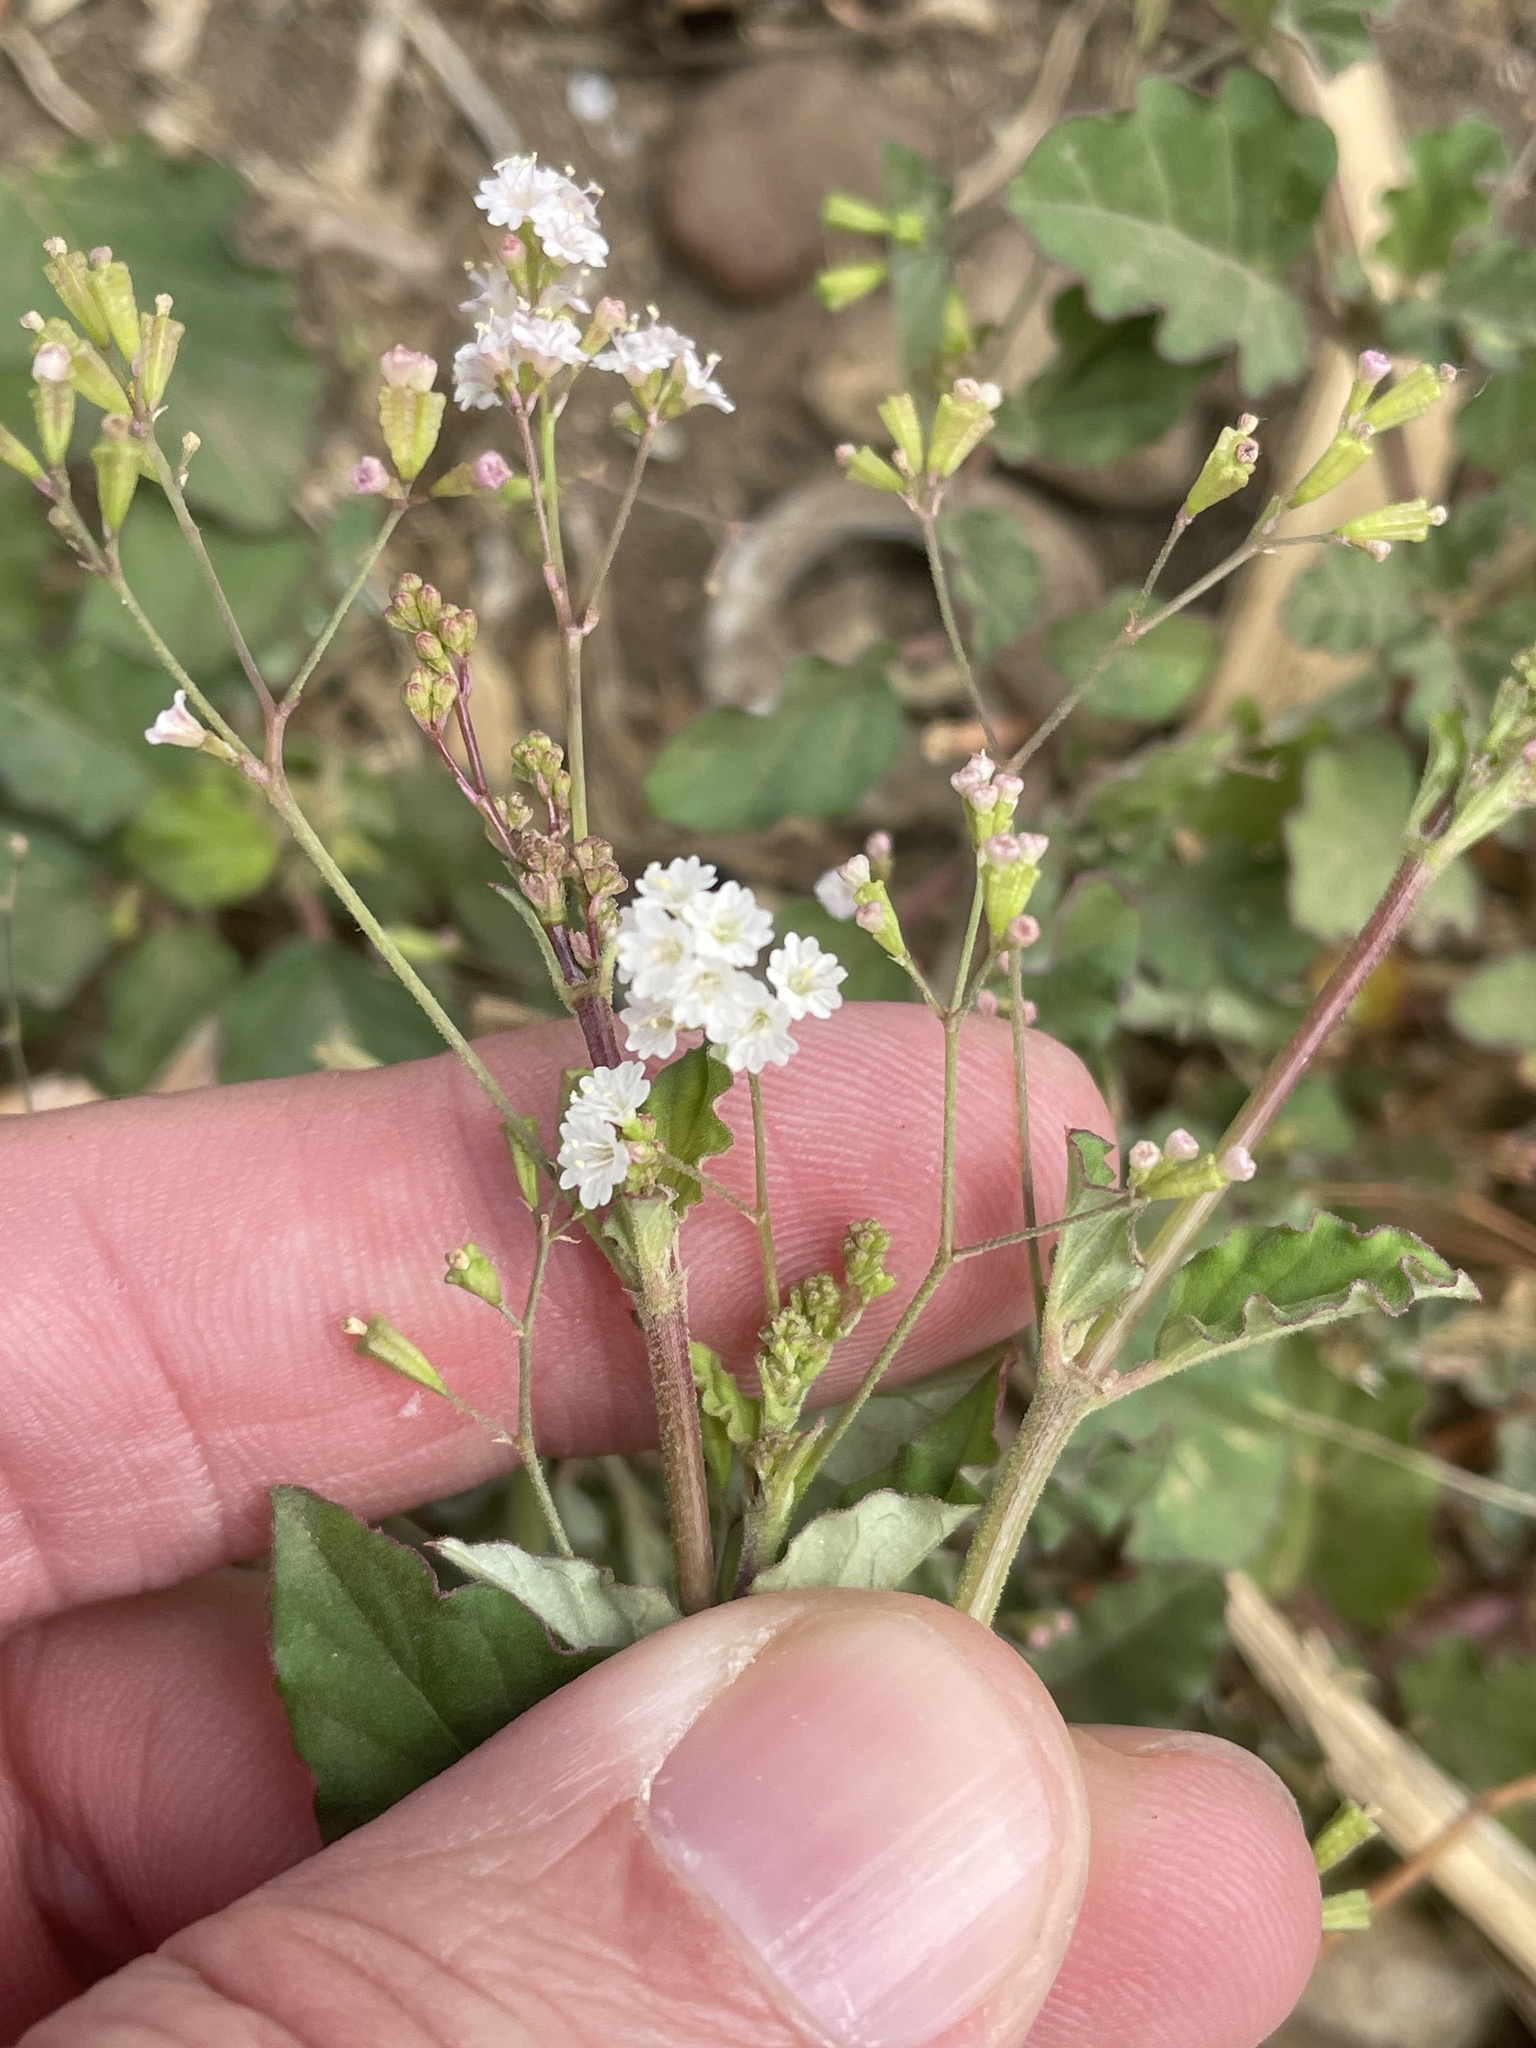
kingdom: Plantae
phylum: Tracheophyta
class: Magnoliopsida
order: Caryophyllales
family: Nyctaginaceae
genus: Boerhavia
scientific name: Boerhavia erecta
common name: Erect spiderling
